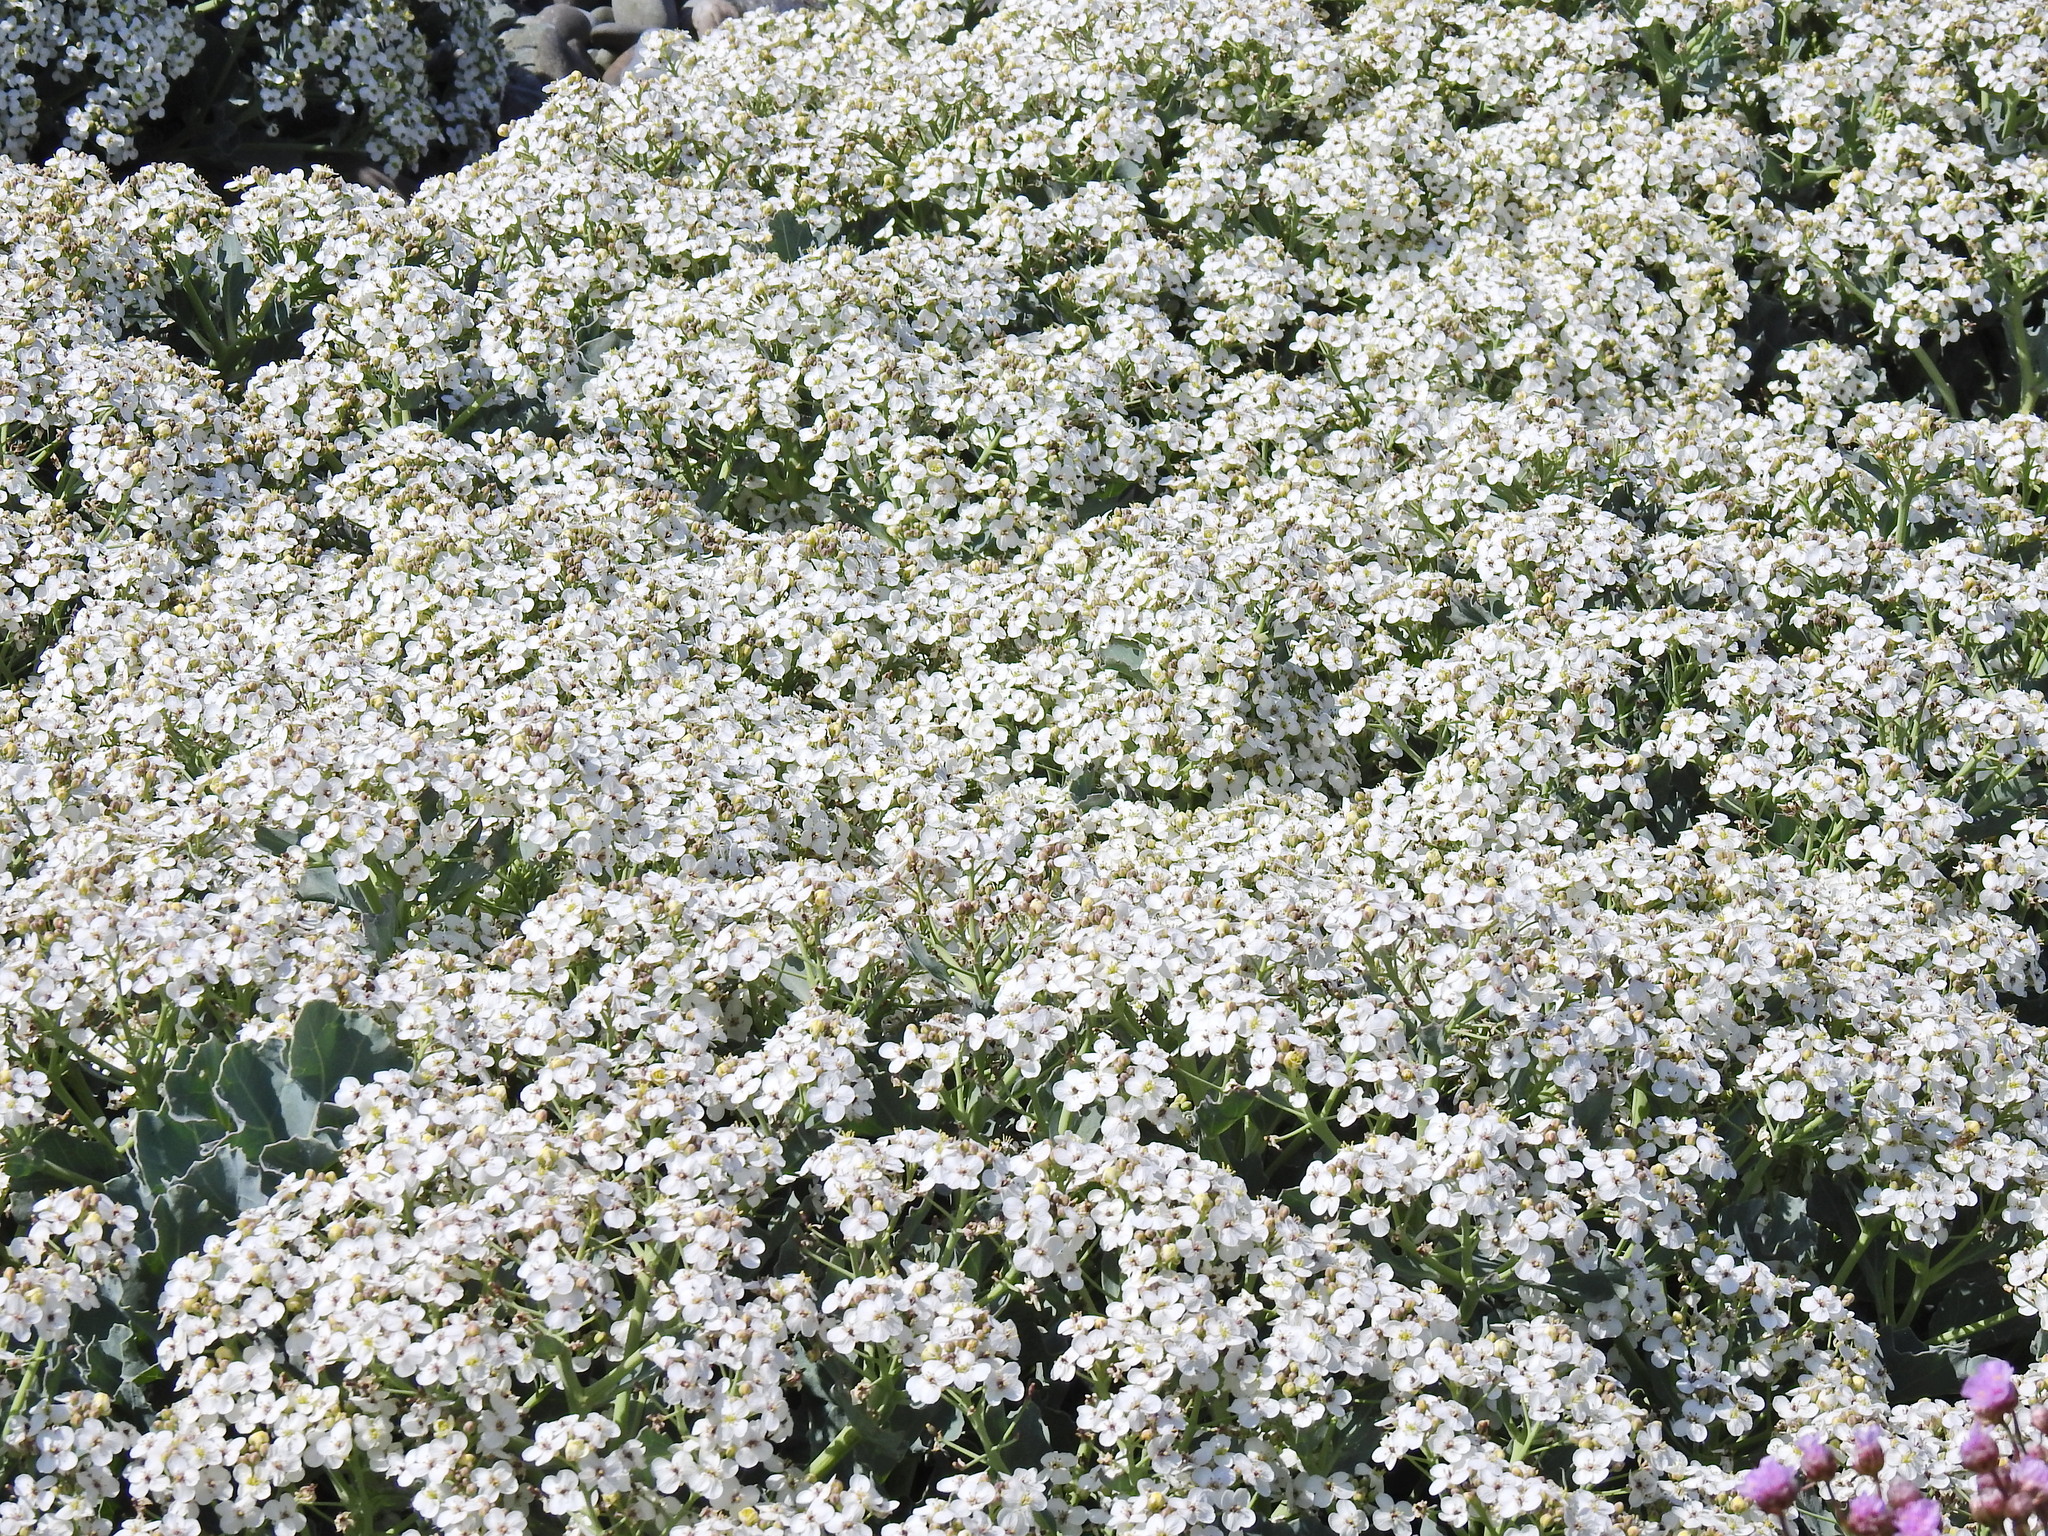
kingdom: Plantae
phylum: Tracheophyta
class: Magnoliopsida
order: Brassicales
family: Brassicaceae
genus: Crambe
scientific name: Crambe maritima
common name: Sea-kale
